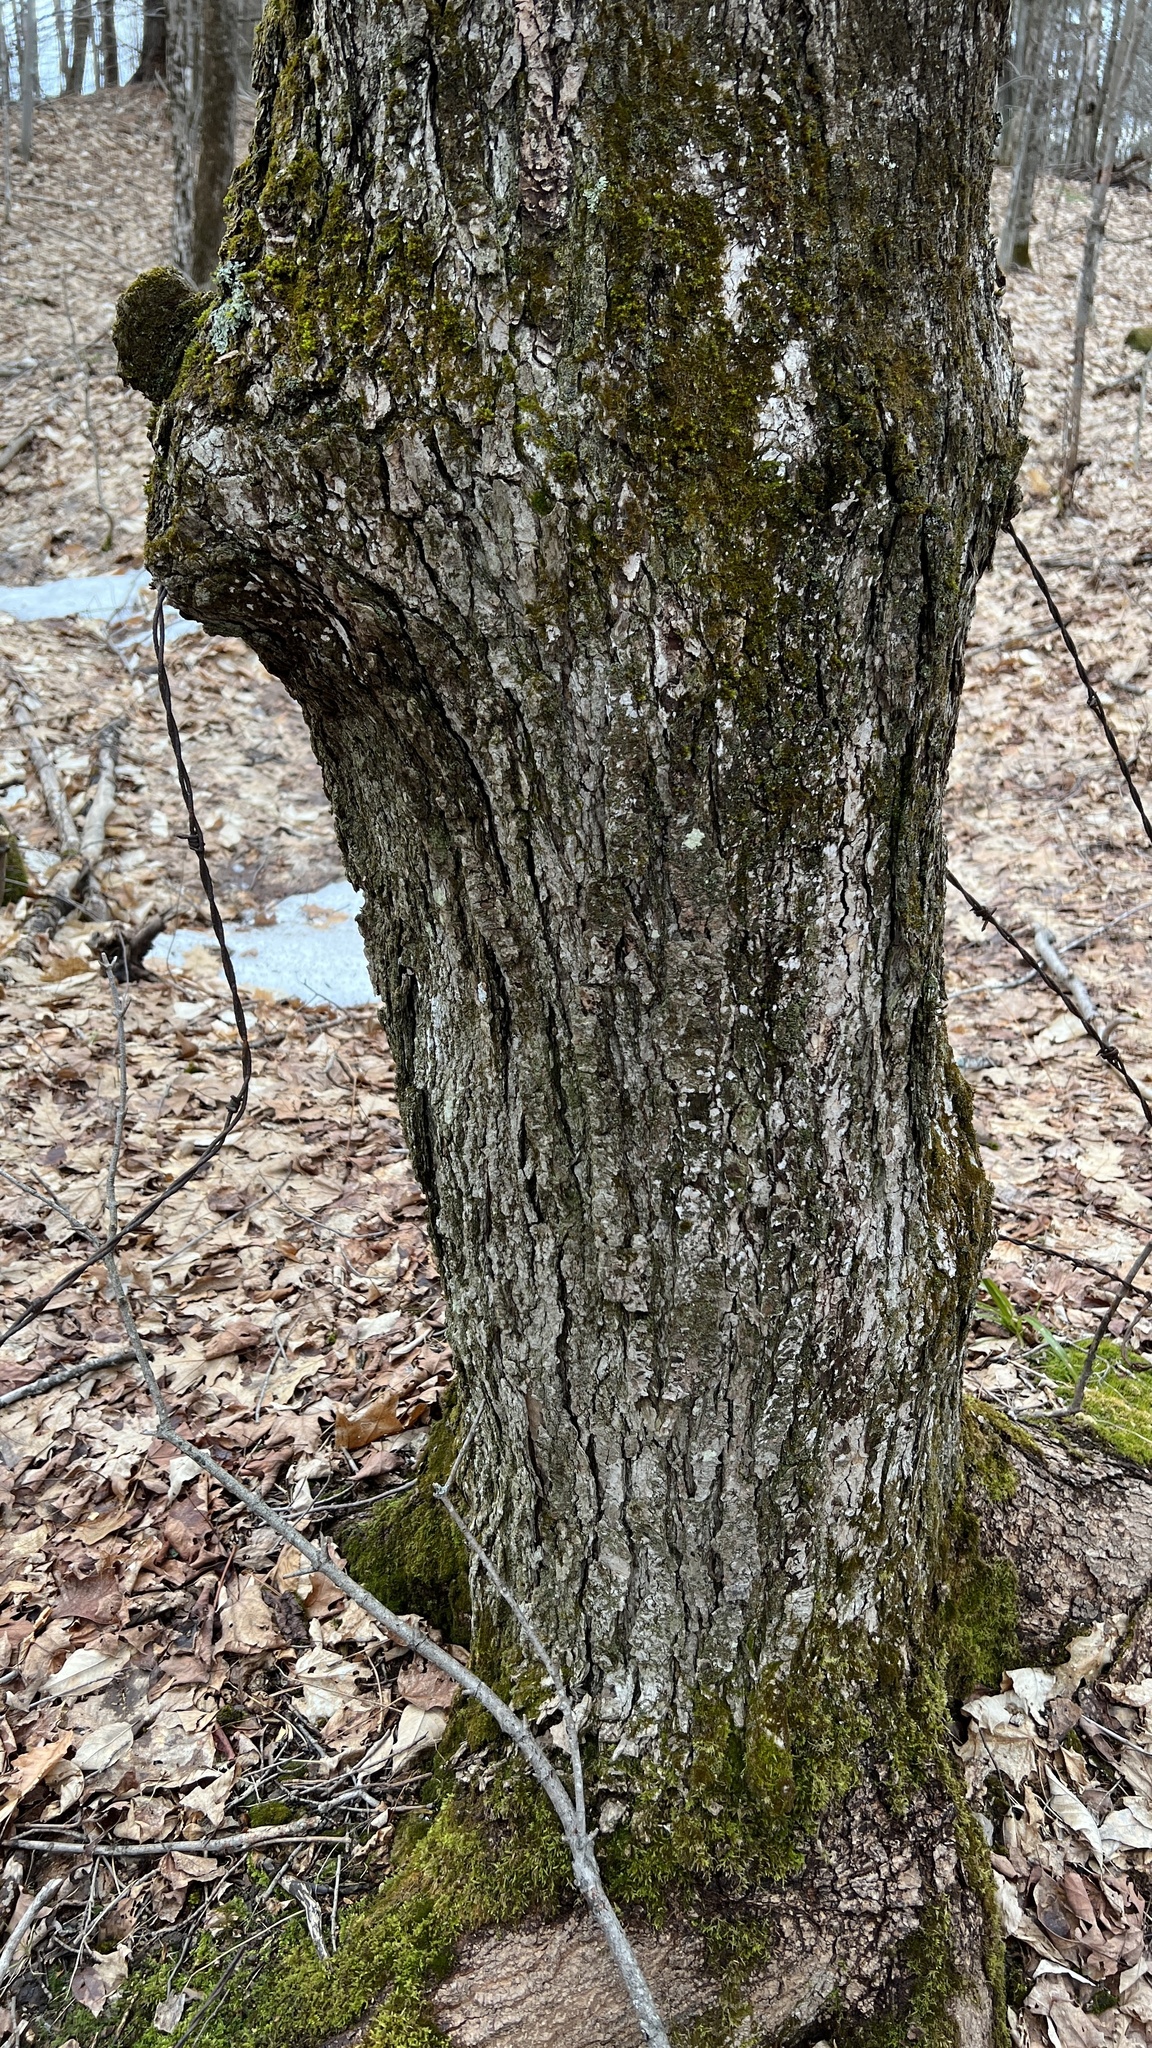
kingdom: Plantae
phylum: Tracheophyta
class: Magnoliopsida
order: Sapindales
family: Sapindaceae
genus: Acer
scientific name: Acer saccharum
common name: Sugar maple
